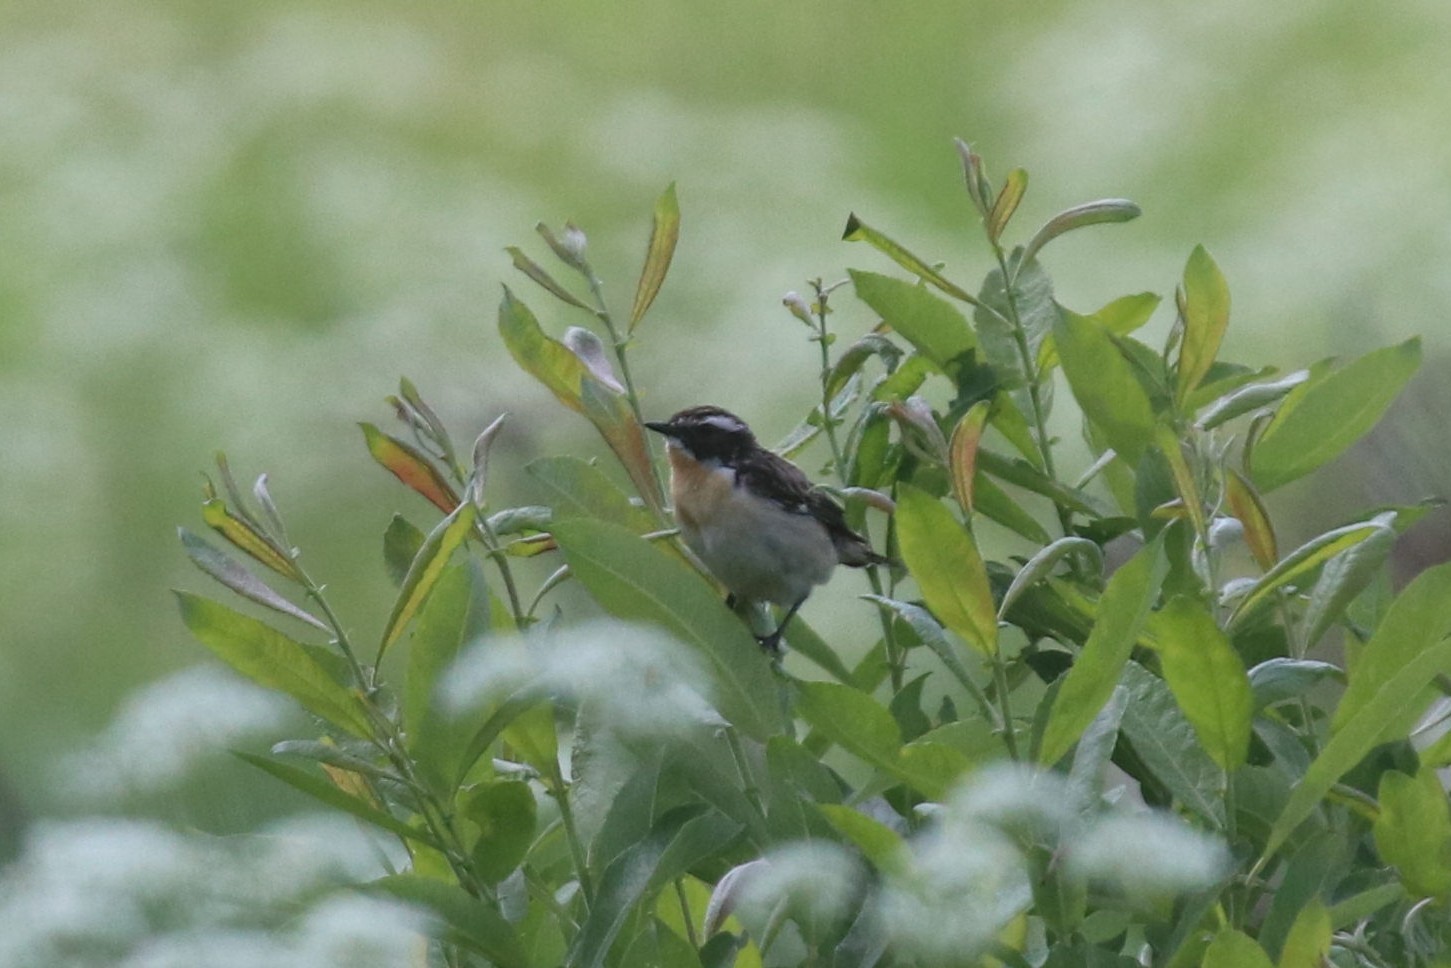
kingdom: Animalia
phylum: Chordata
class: Aves
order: Passeriformes
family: Muscicapidae
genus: Saxicola
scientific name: Saxicola rubetra
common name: Whinchat
